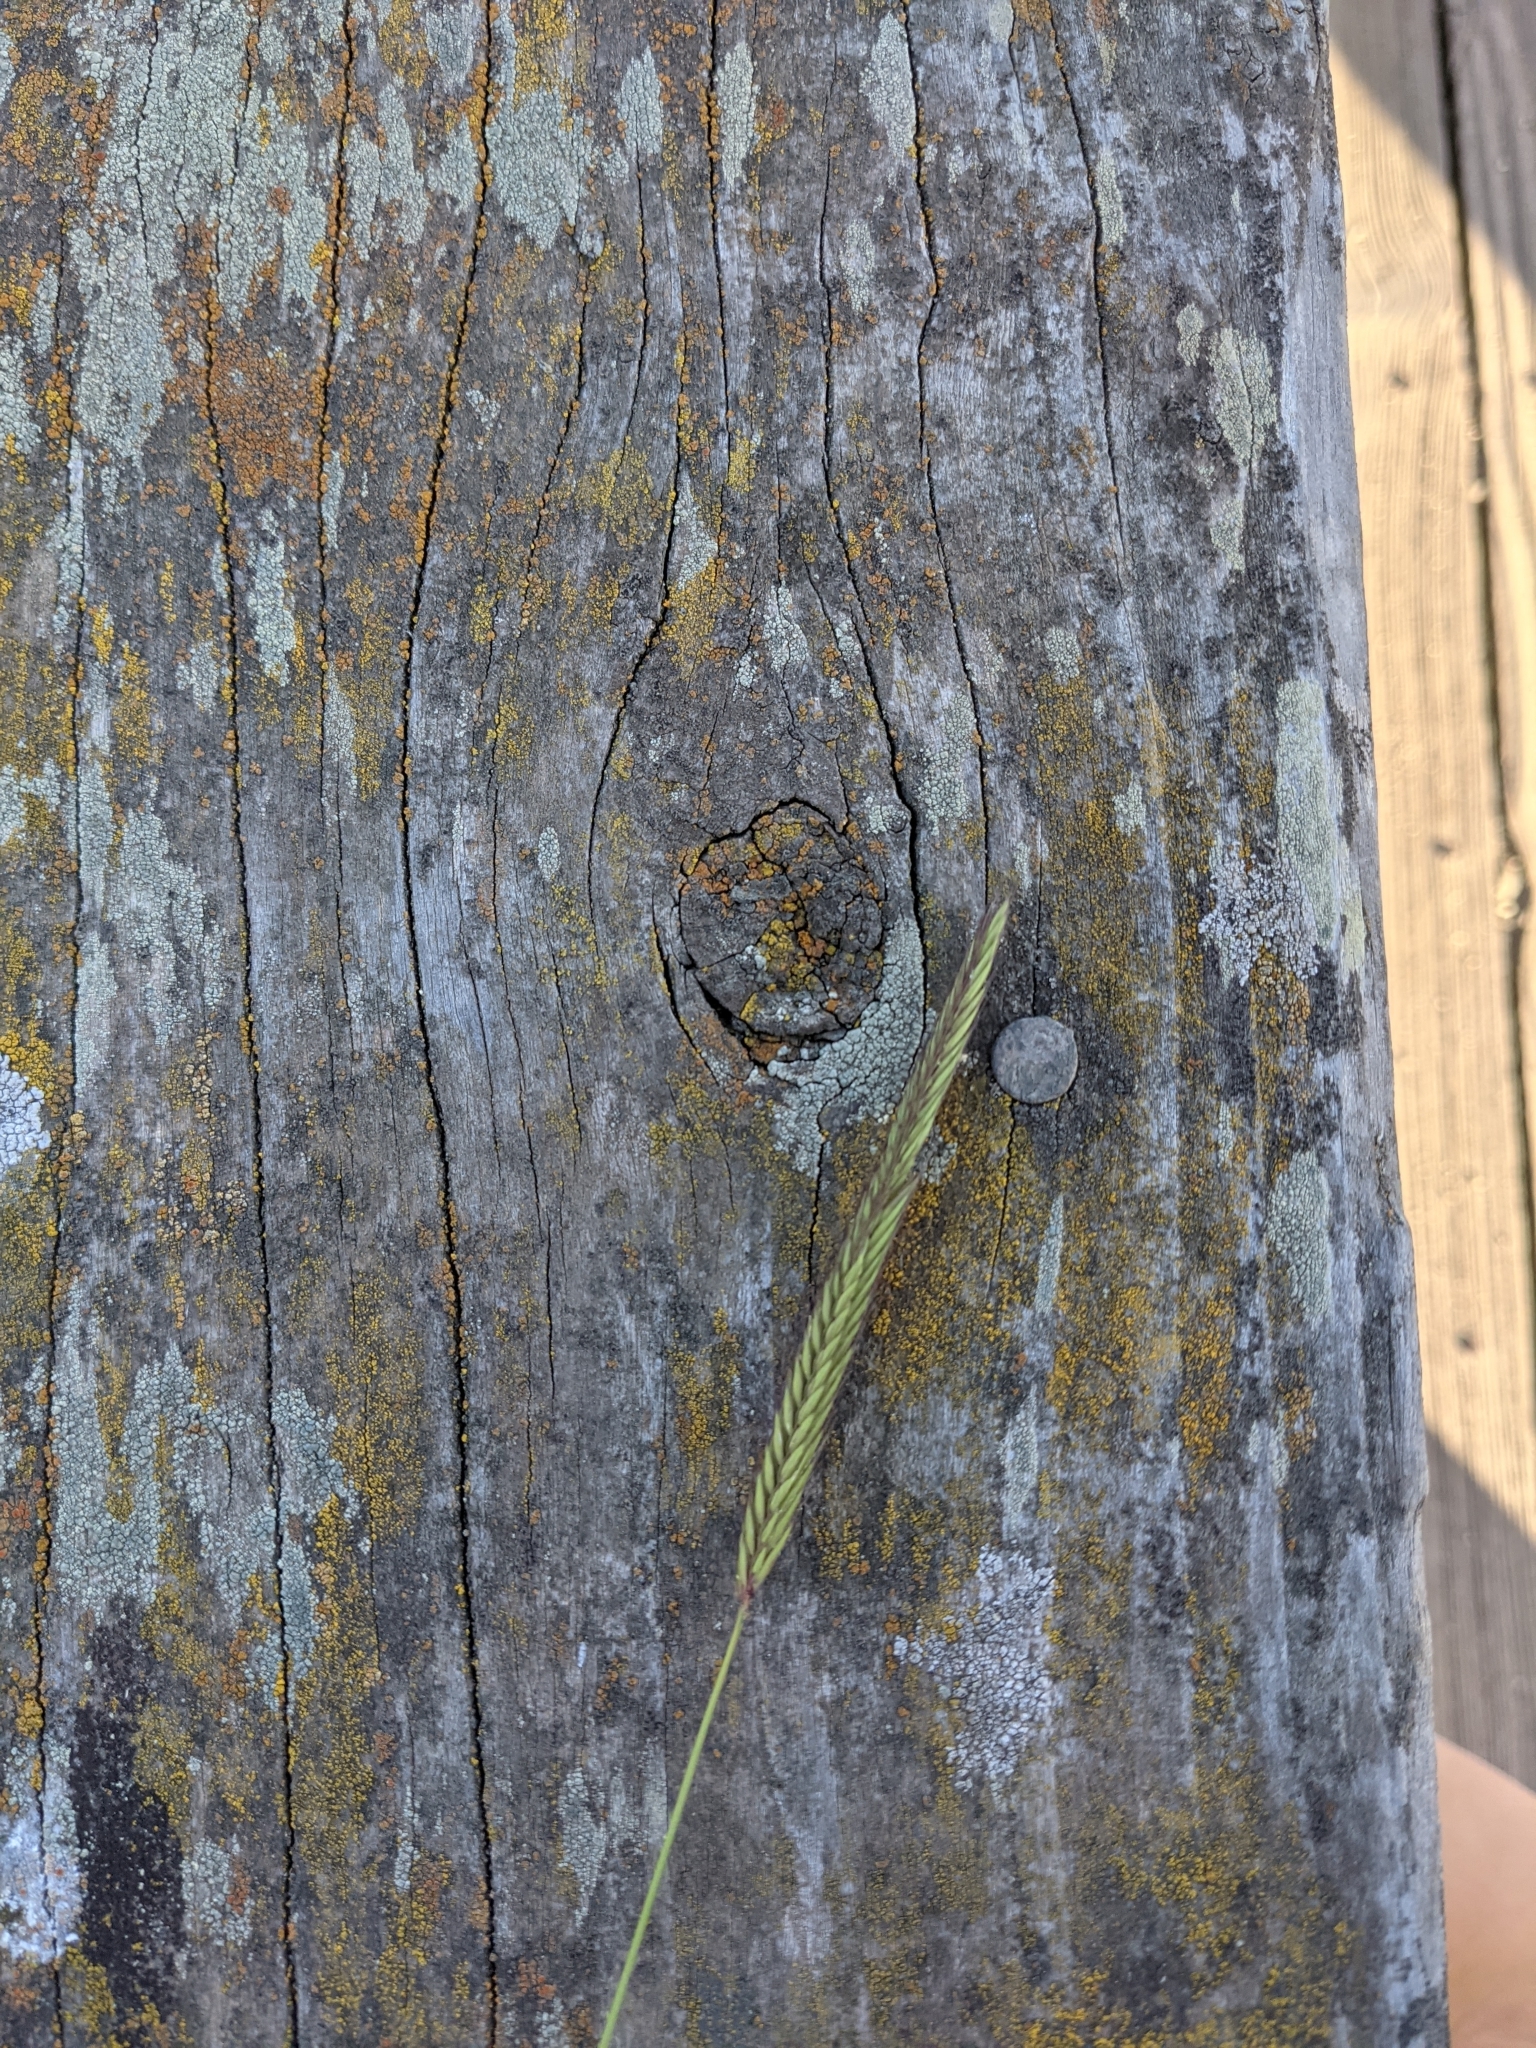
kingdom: Plantae
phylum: Tracheophyta
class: Liliopsida
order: Poales
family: Poaceae
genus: Hordeum
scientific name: Hordeum brachyantherum
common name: Meadow barley
